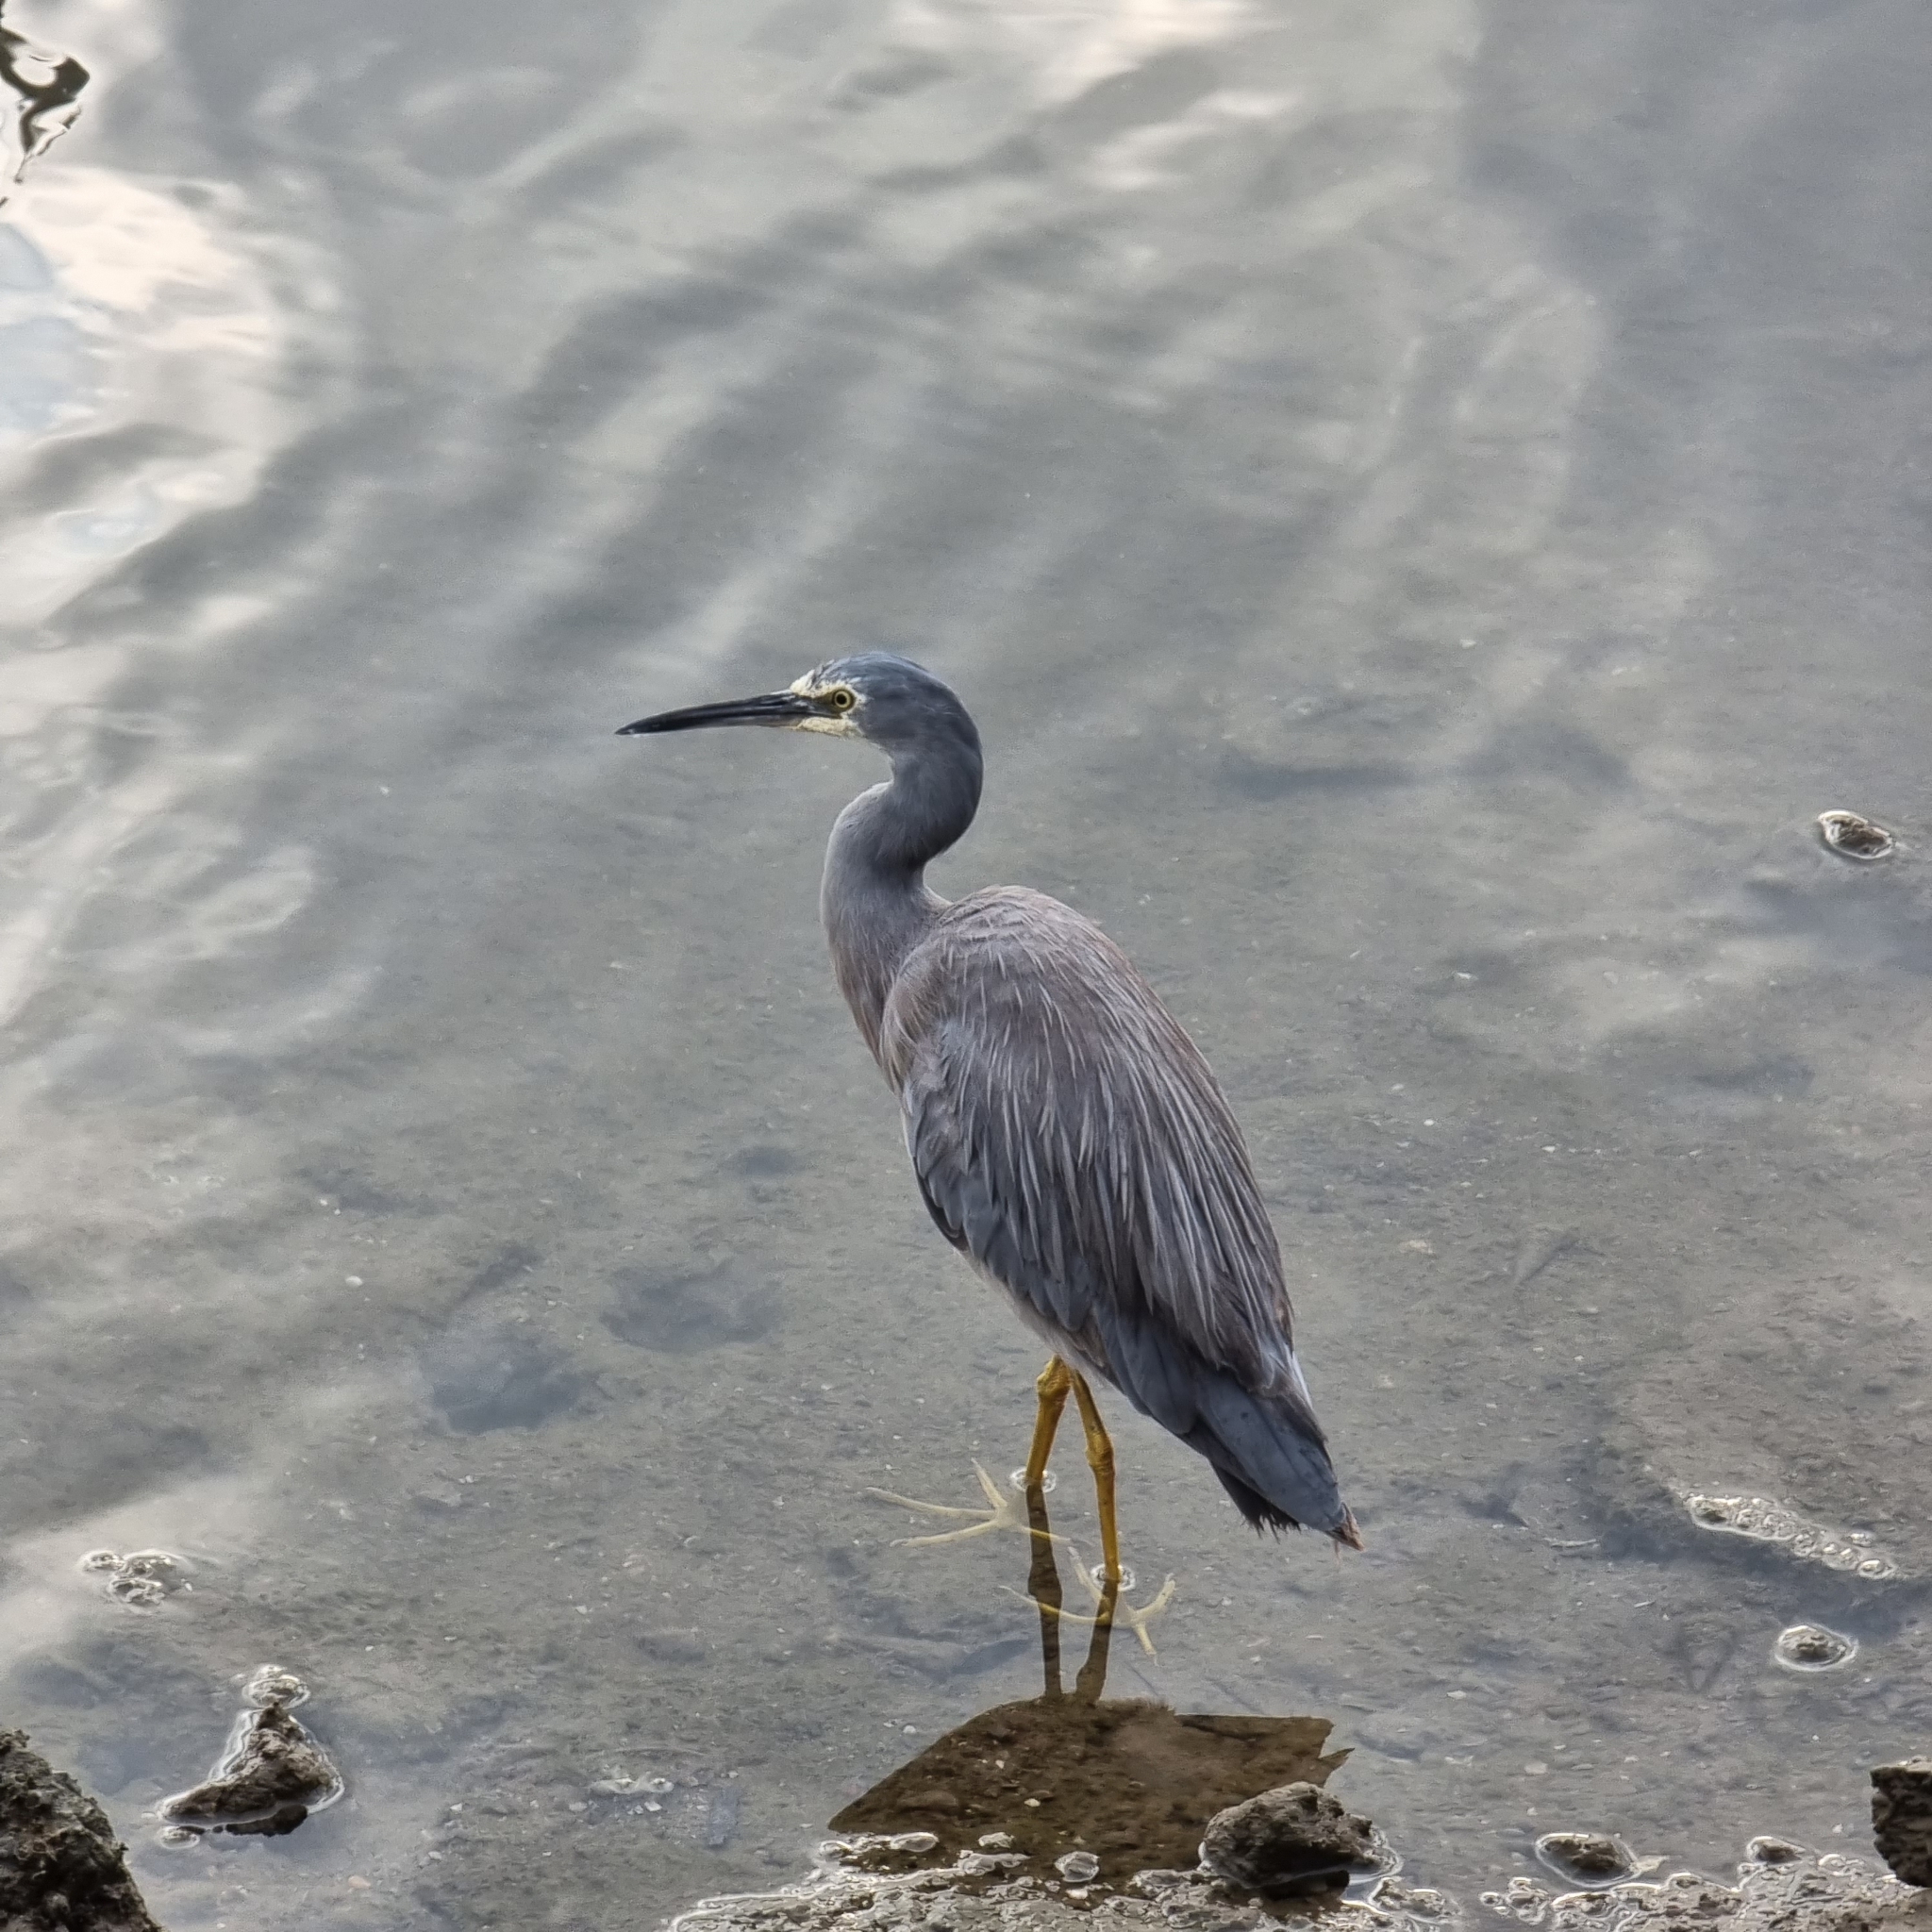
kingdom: Animalia
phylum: Chordata
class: Aves
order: Pelecaniformes
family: Ardeidae
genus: Egretta
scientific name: Egretta novaehollandiae
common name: White-faced heron
